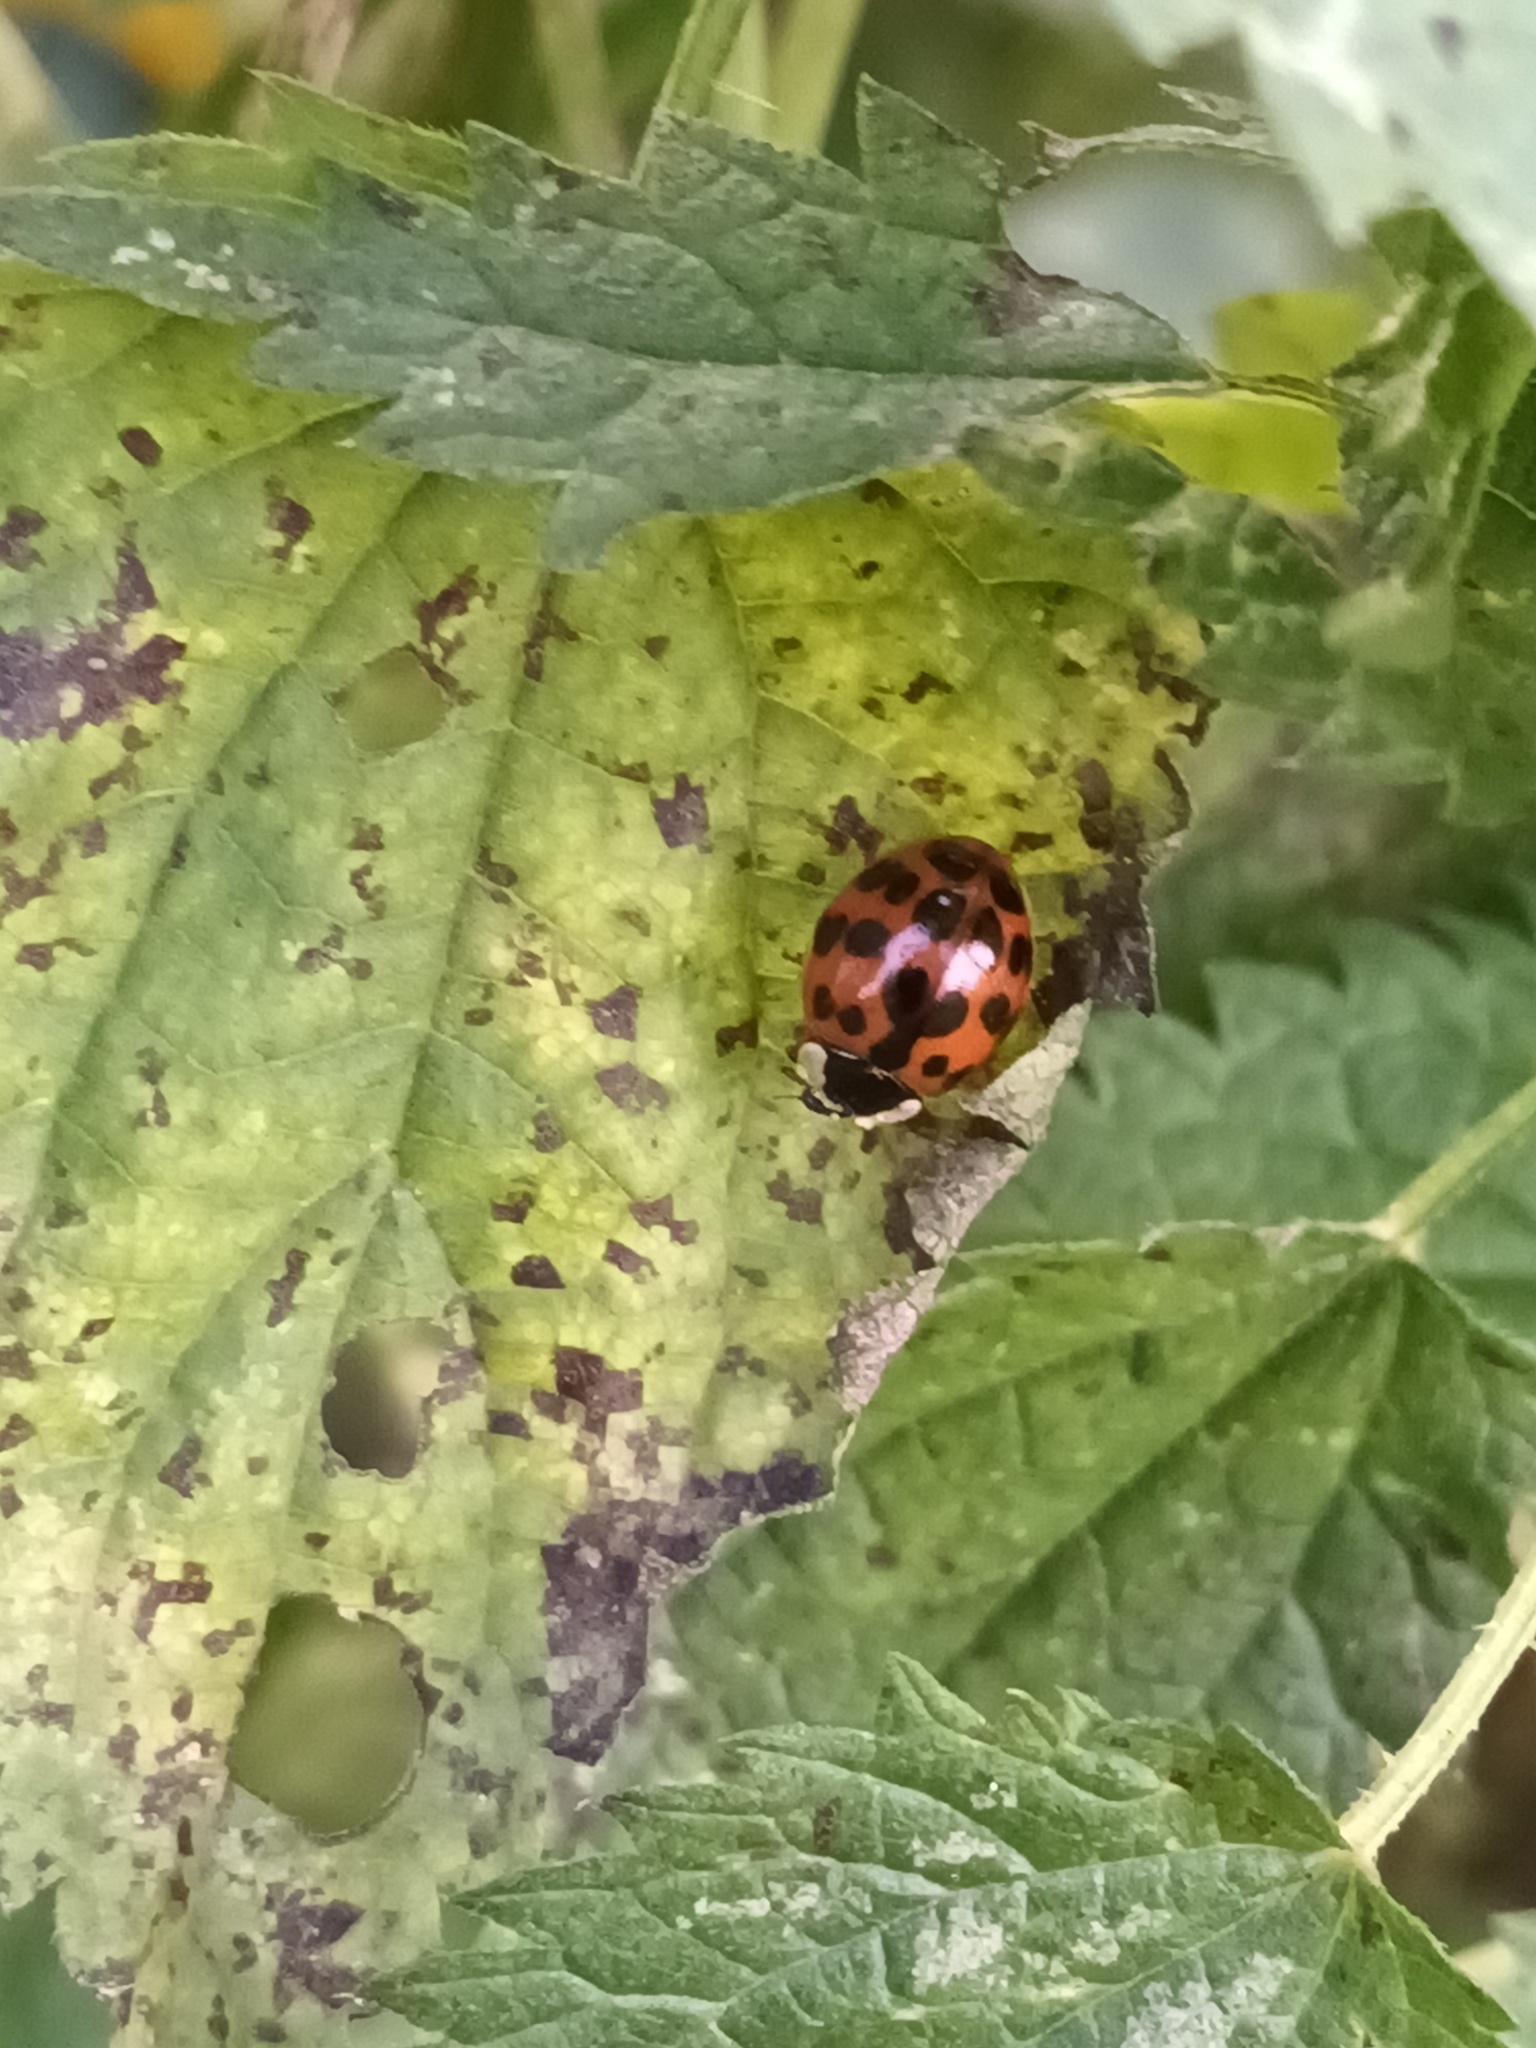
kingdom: Animalia
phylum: Arthropoda
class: Insecta
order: Coleoptera
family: Coccinellidae
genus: Harmonia
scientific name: Harmonia axyridis
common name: Harlequin ladybird
